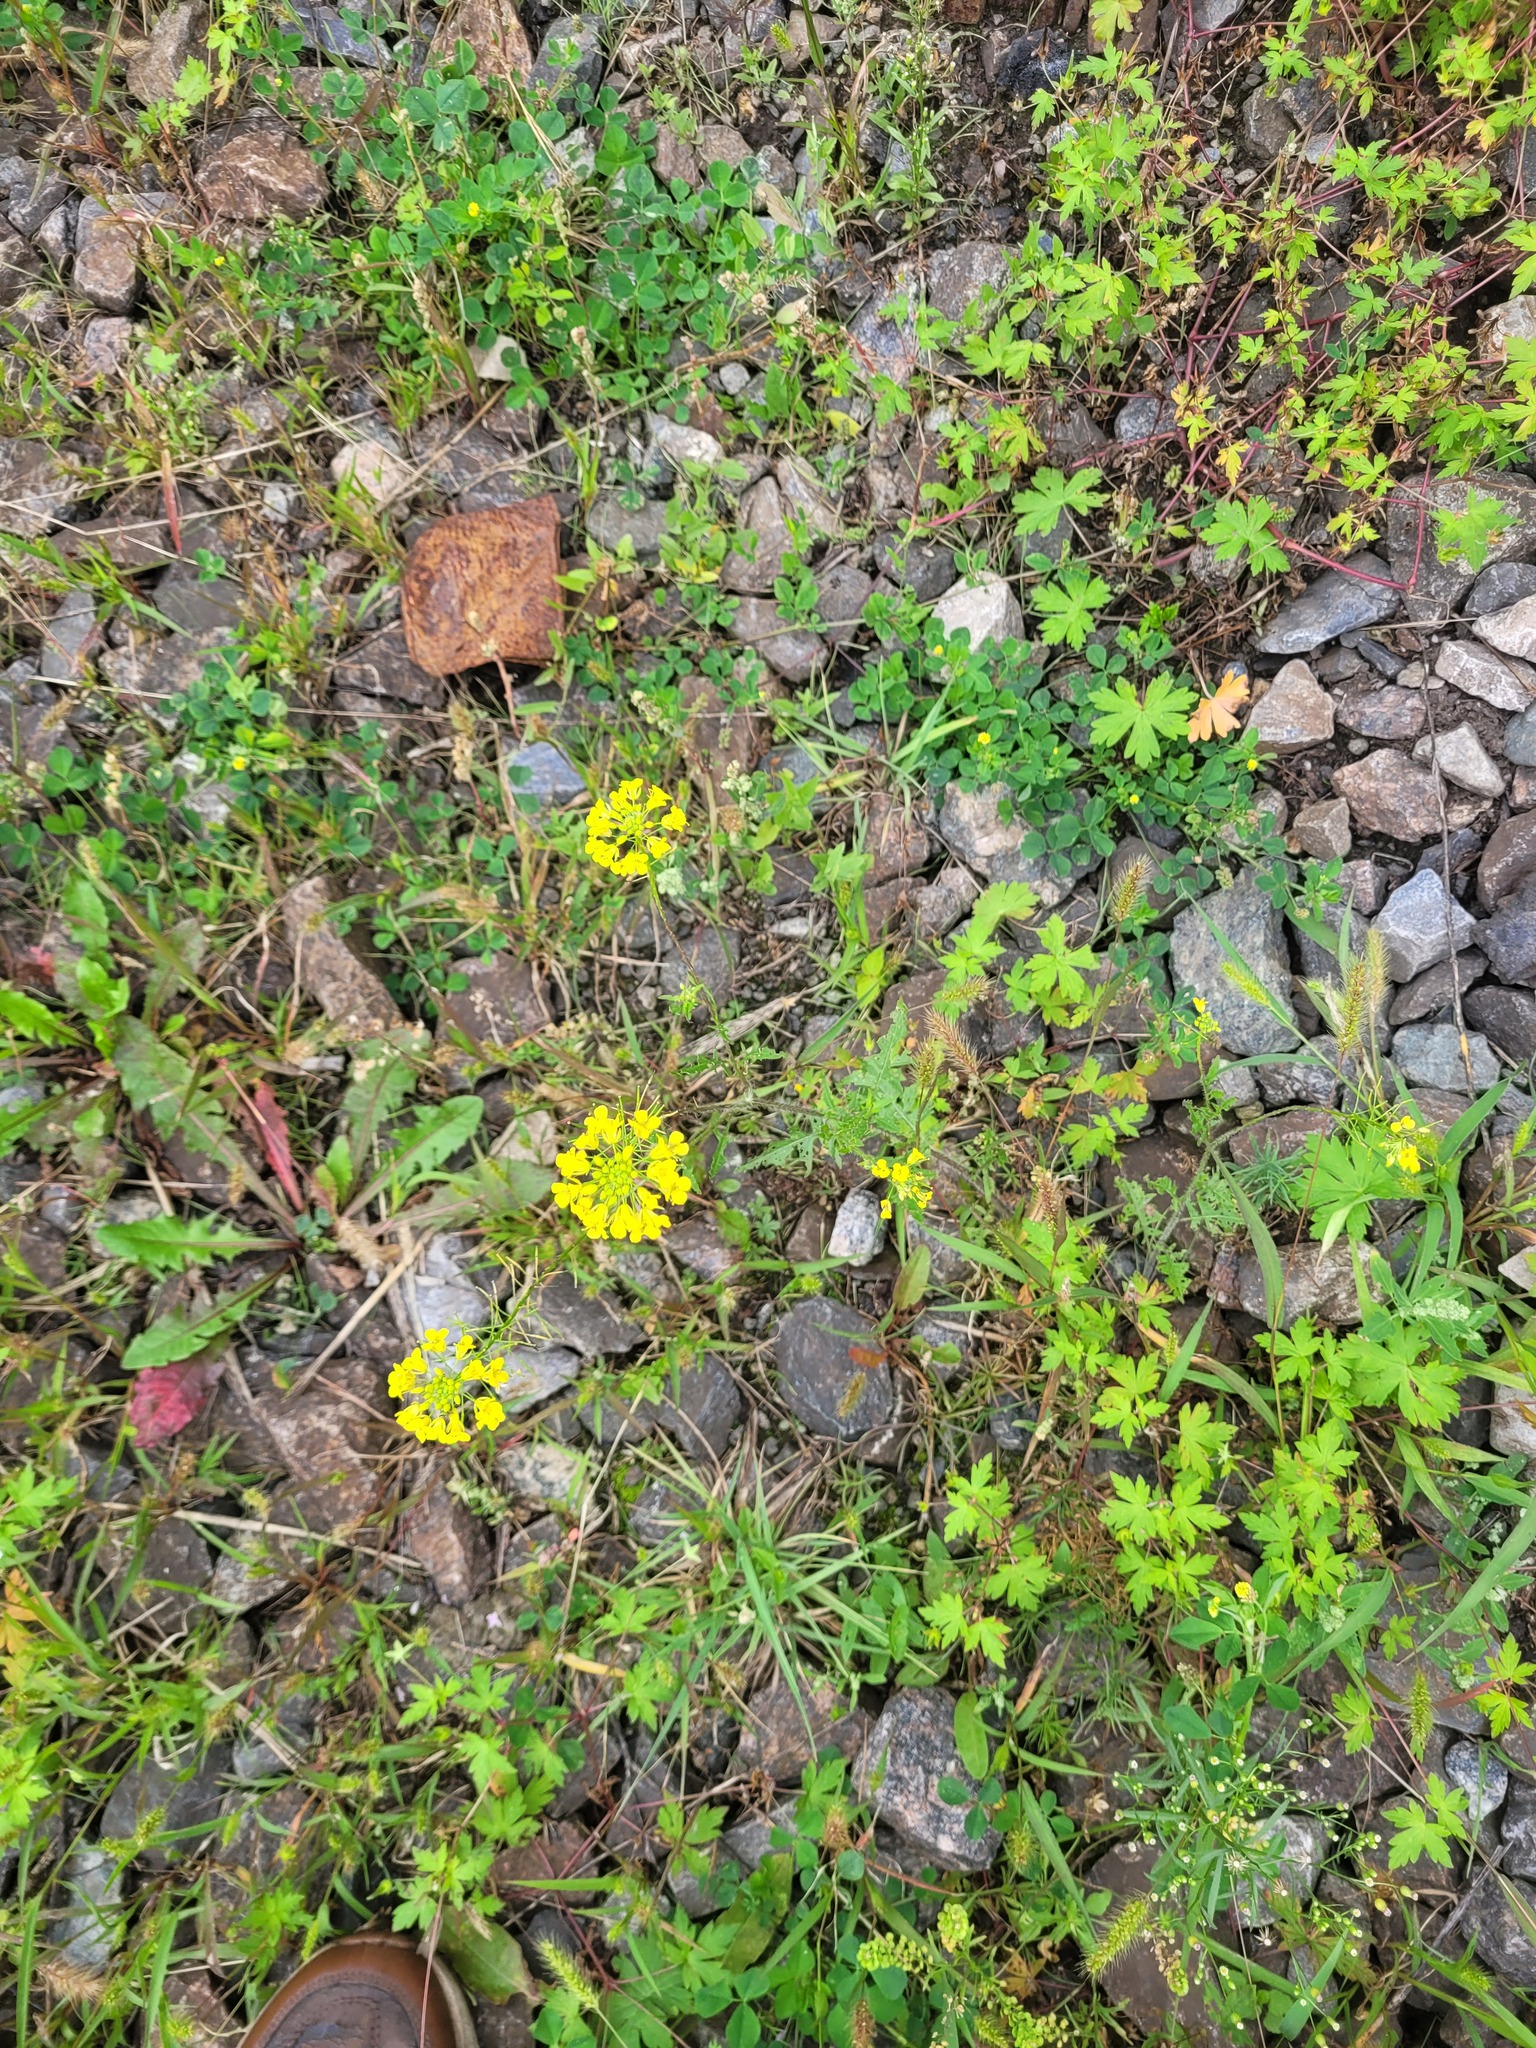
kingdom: Plantae
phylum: Tracheophyta
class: Magnoliopsida
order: Brassicales
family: Brassicaceae
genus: Sisymbrium
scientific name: Sisymbrium loeselii
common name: False london-rocket
